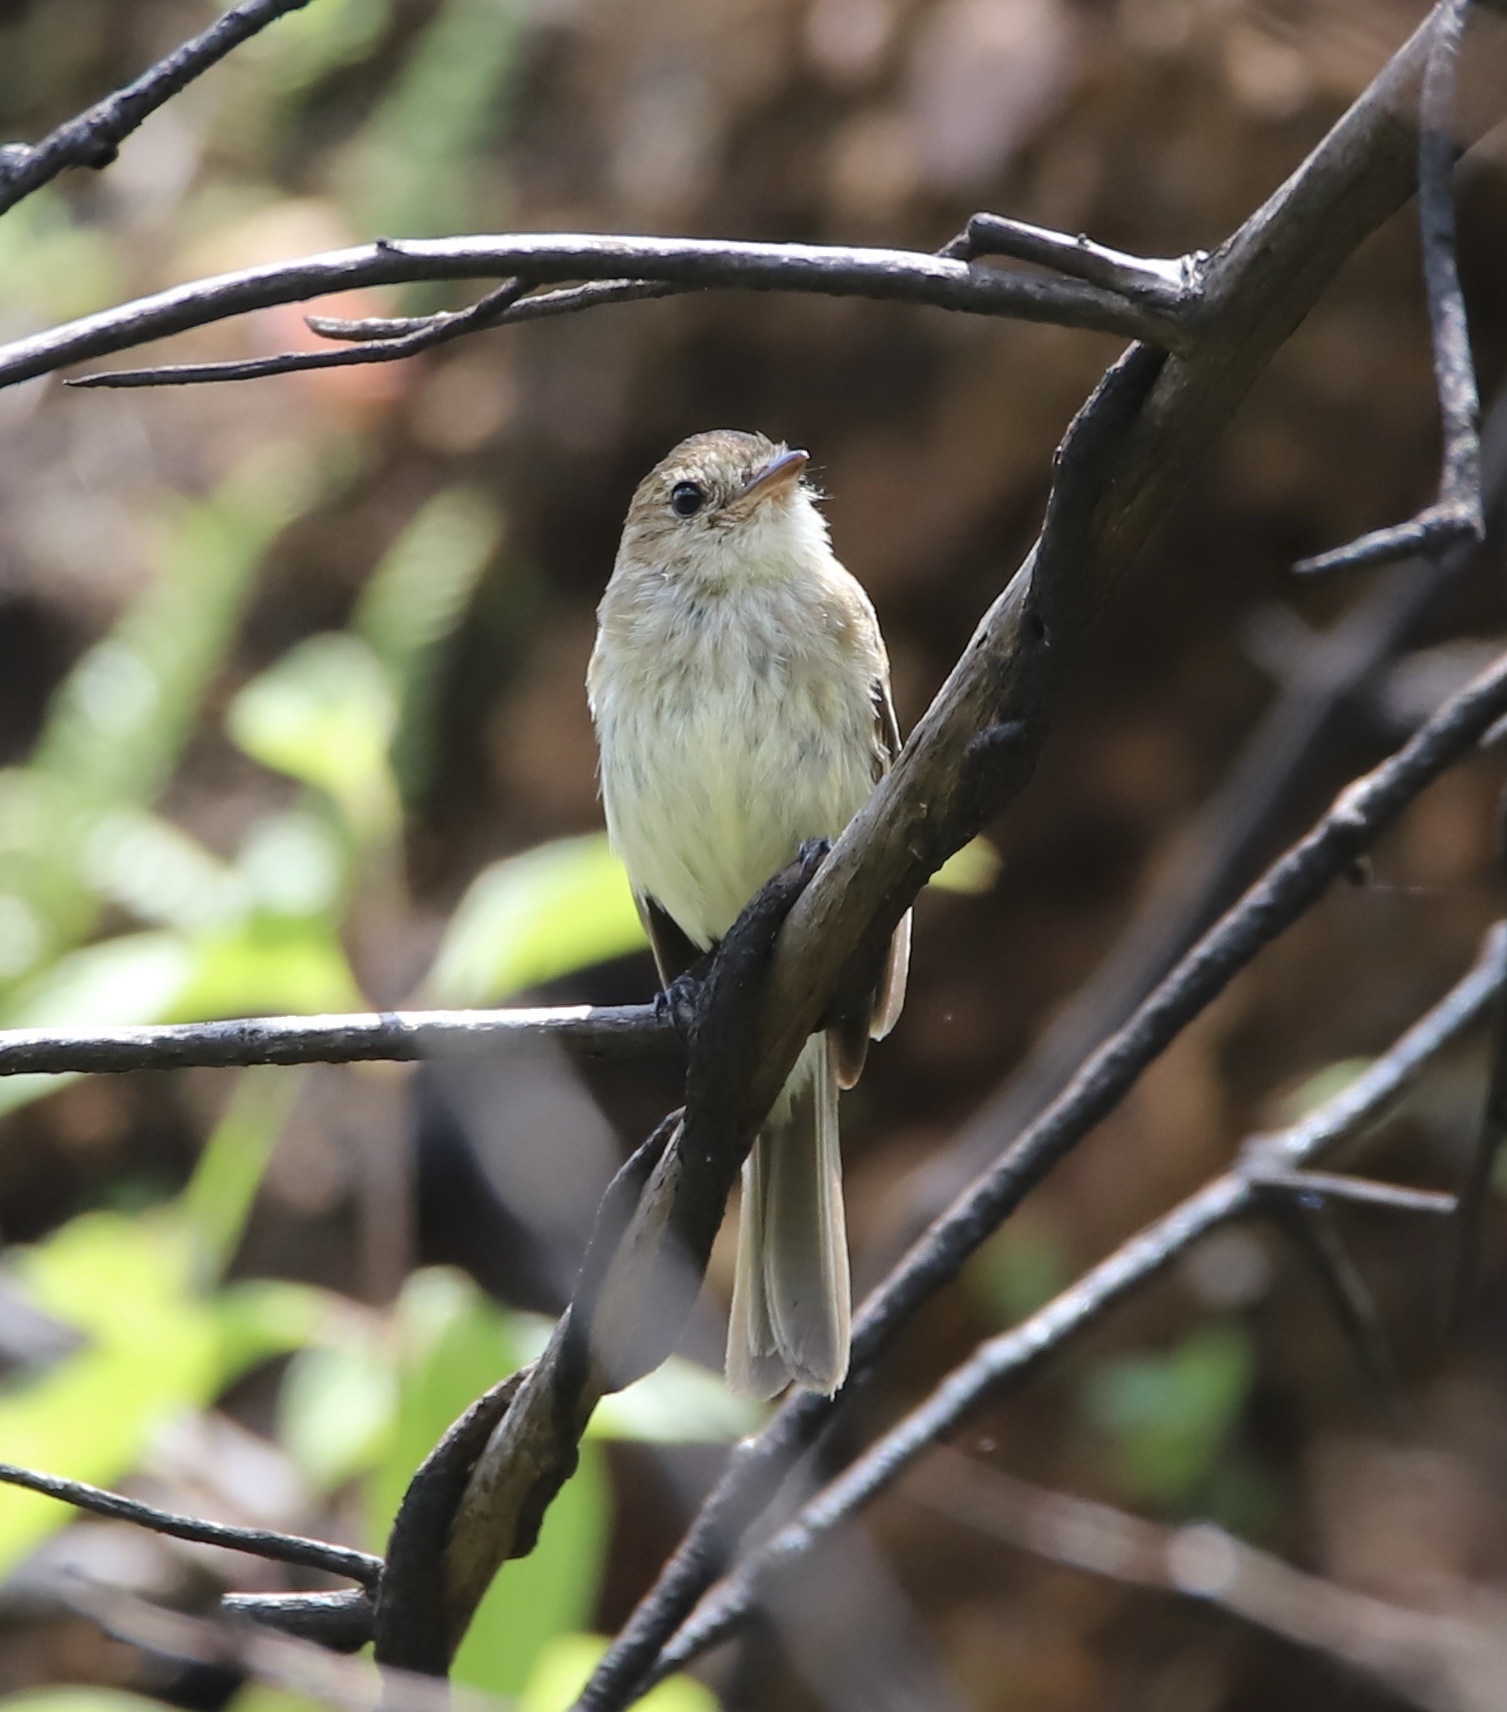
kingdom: Animalia
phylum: Chordata
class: Aves
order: Passeriformes
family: Tyrannidae
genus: Myiophobus
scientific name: Myiophobus fasciatus
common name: Bran-colored flycatcher
